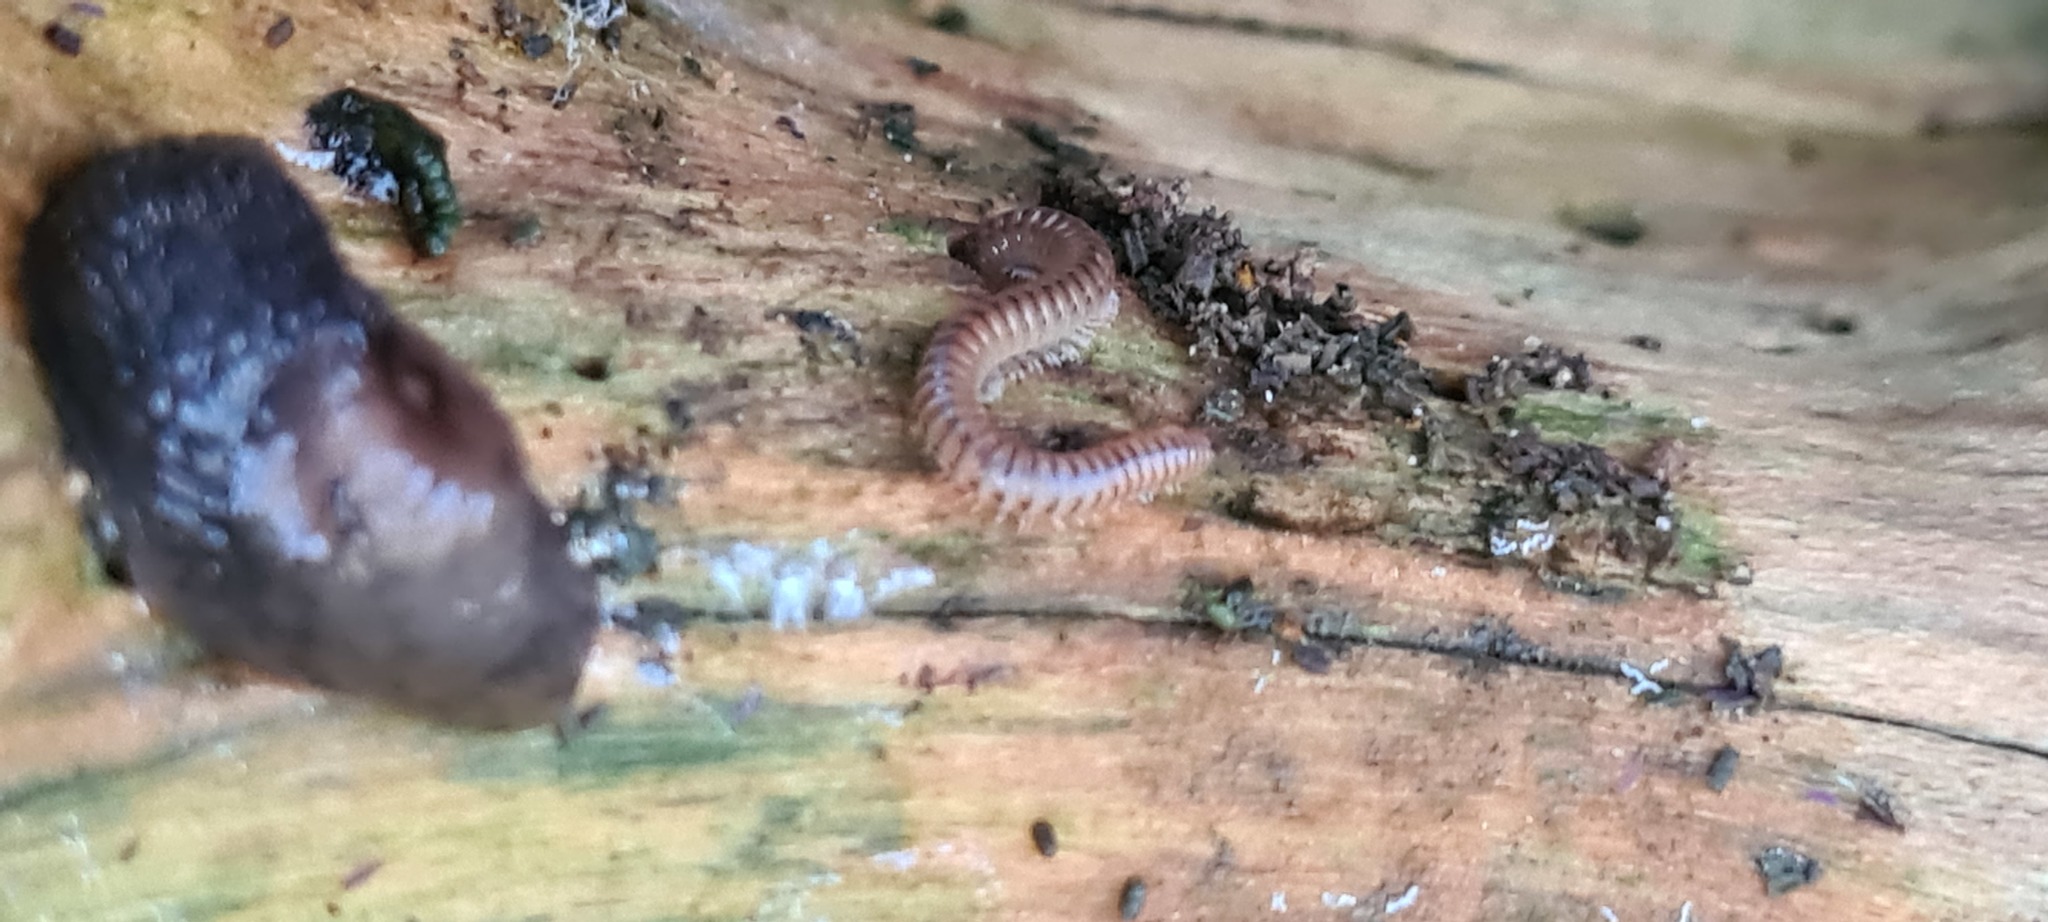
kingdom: Animalia
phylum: Arthropoda
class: Diplopoda
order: Julida
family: Julidae
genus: Cylindroiulus
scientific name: Cylindroiulus punctatus
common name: Blunt-tailed millipede
